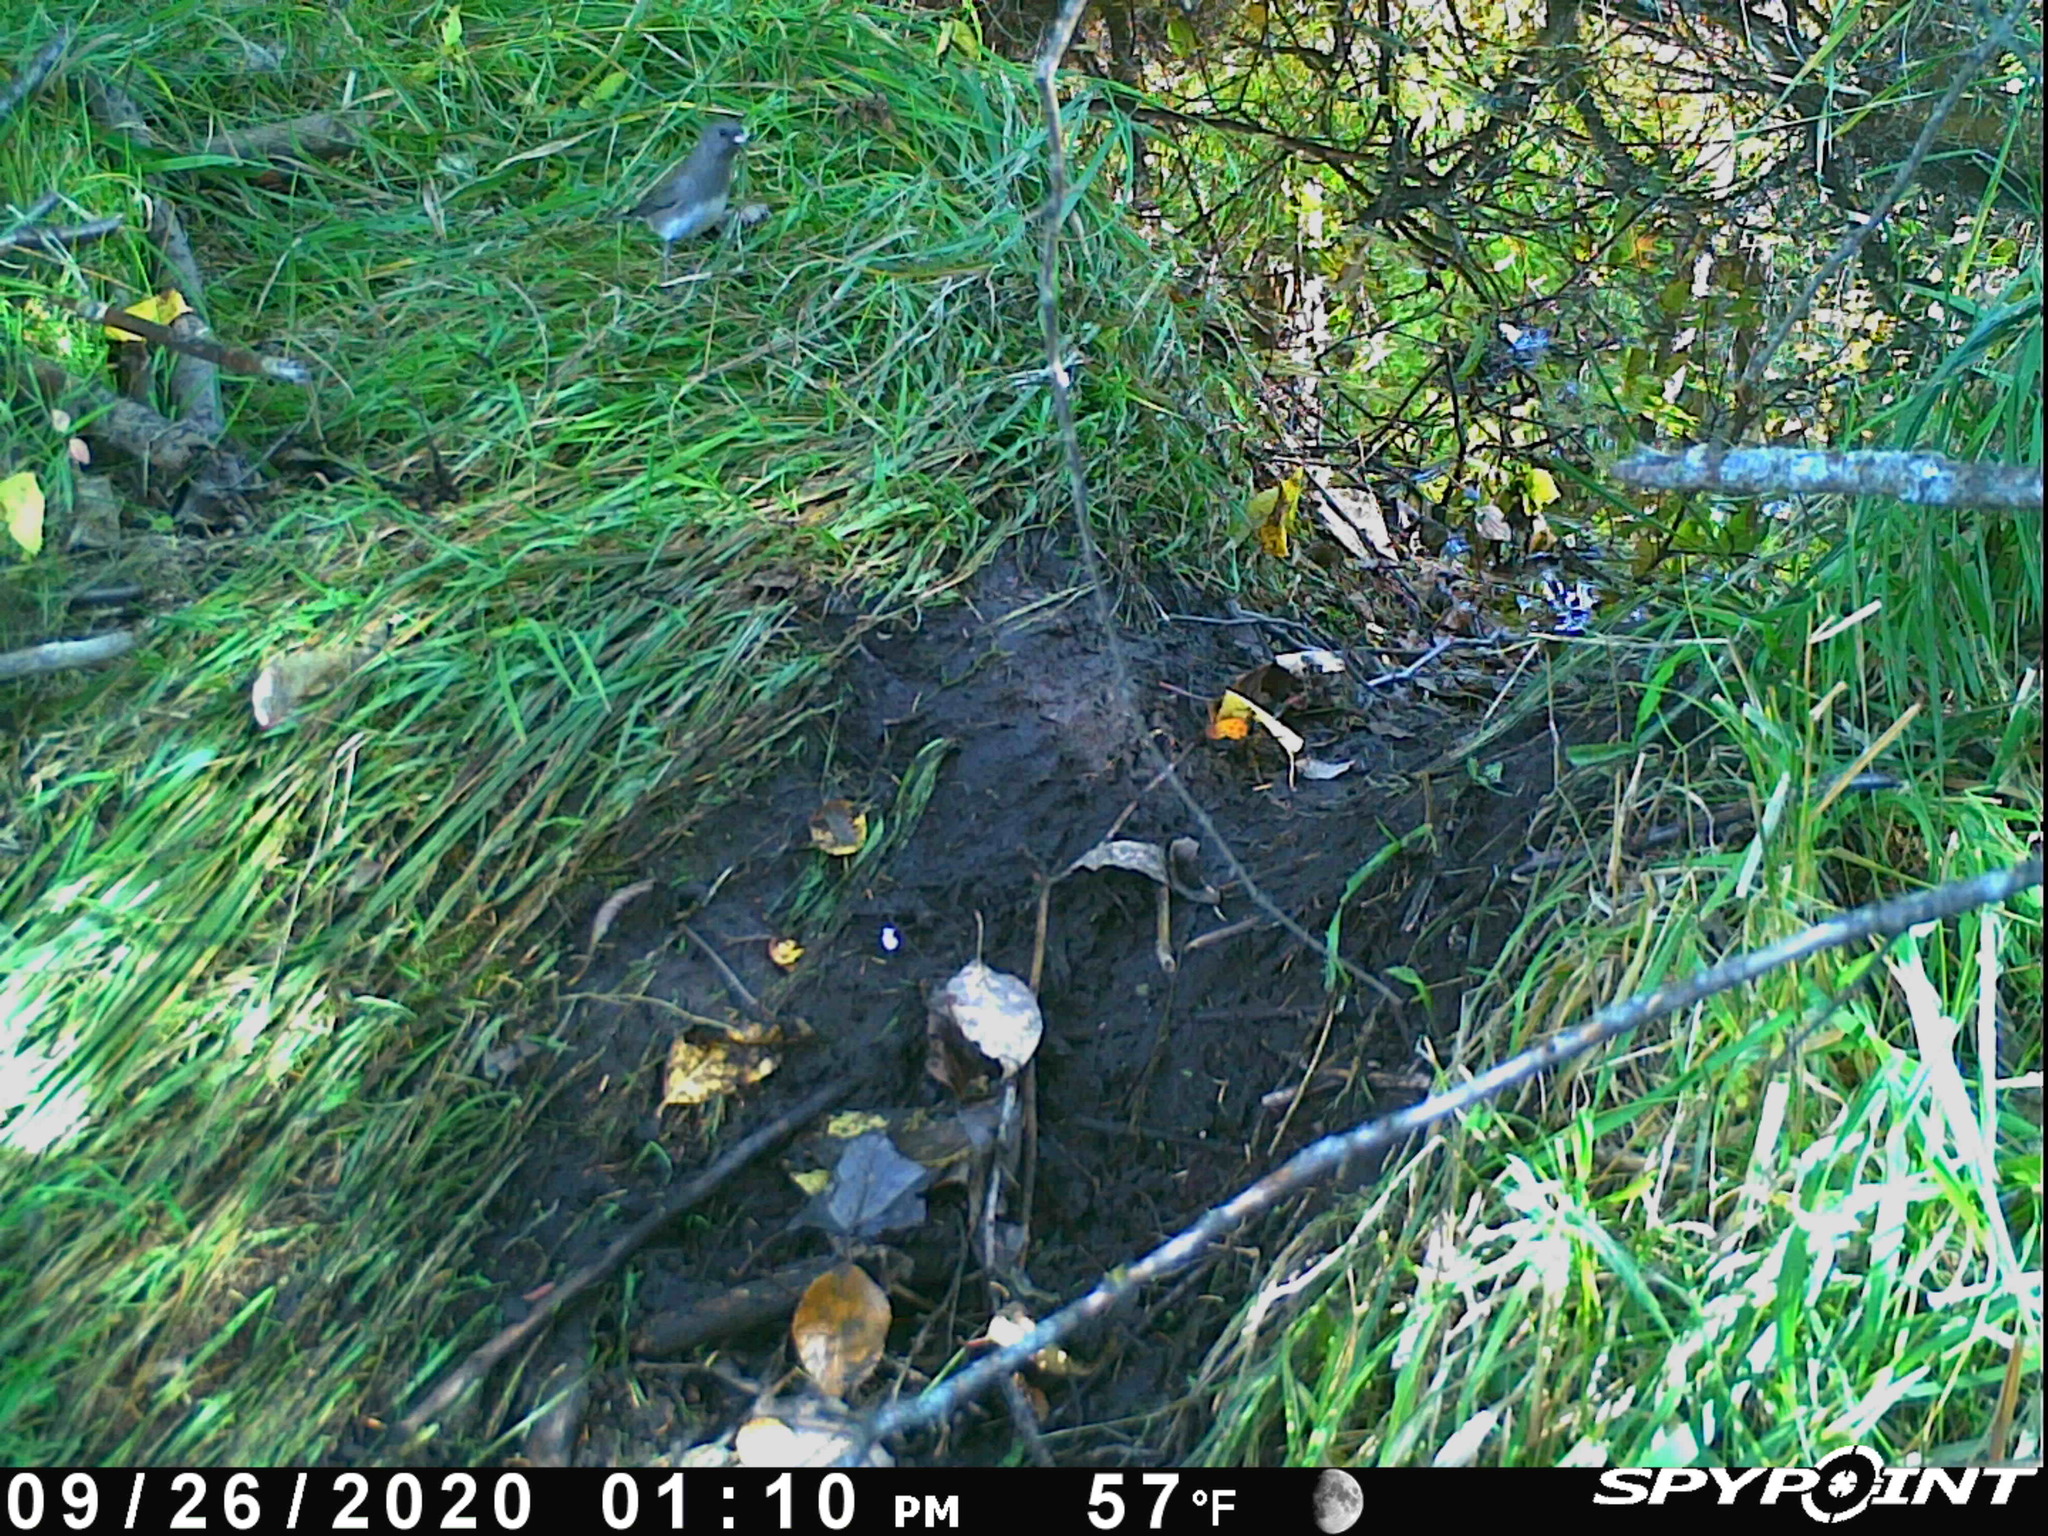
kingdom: Animalia
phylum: Chordata
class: Aves
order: Passeriformes
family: Passerellidae
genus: Junco
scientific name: Junco hyemalis
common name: Dark-eyed junco
